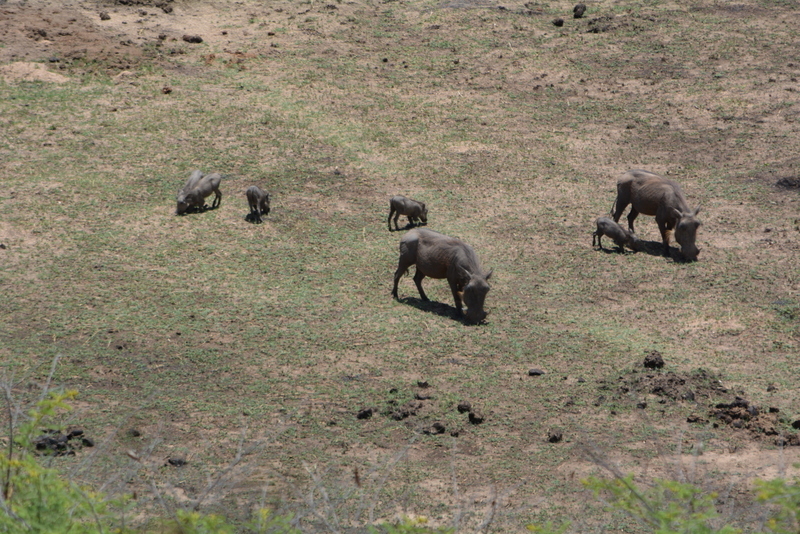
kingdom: Animalia
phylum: Chordata
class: Mammalia
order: Artiodactyla
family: Suidae
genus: Phacochoerus
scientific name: Phacochoerus africanus
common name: Common warthog
